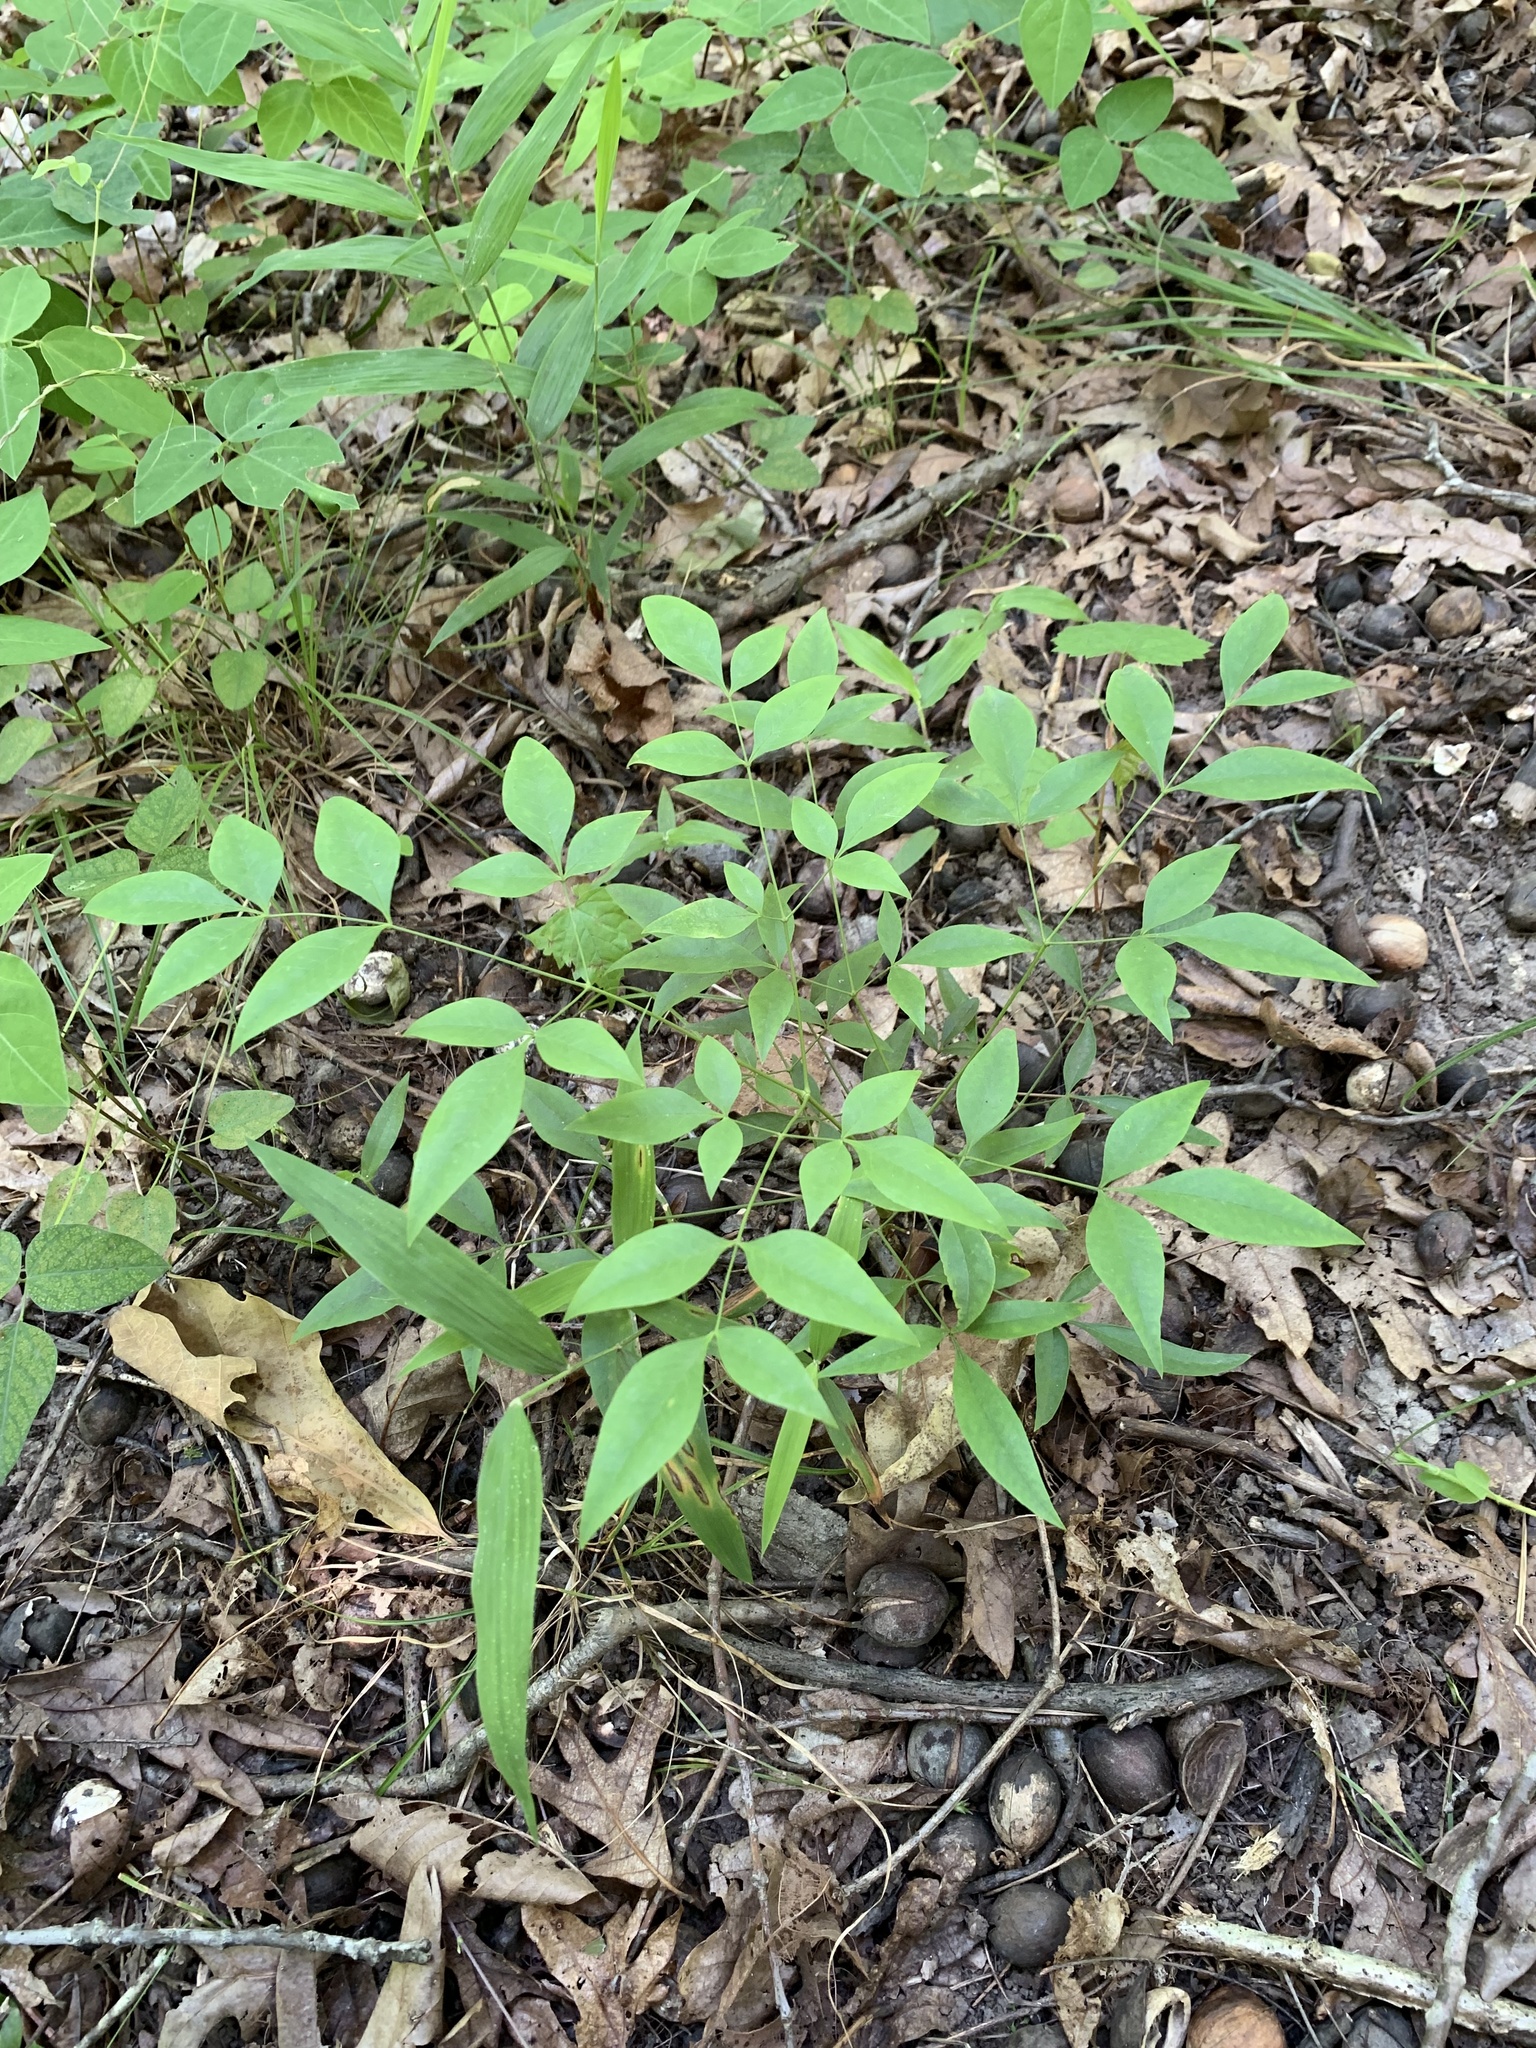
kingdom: Plantae
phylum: Tracheophyta
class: Magnoliopsida
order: Ranunculales
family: Berberidaceae
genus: Nandina
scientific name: Nandina domestica
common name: Sacred bamboo
